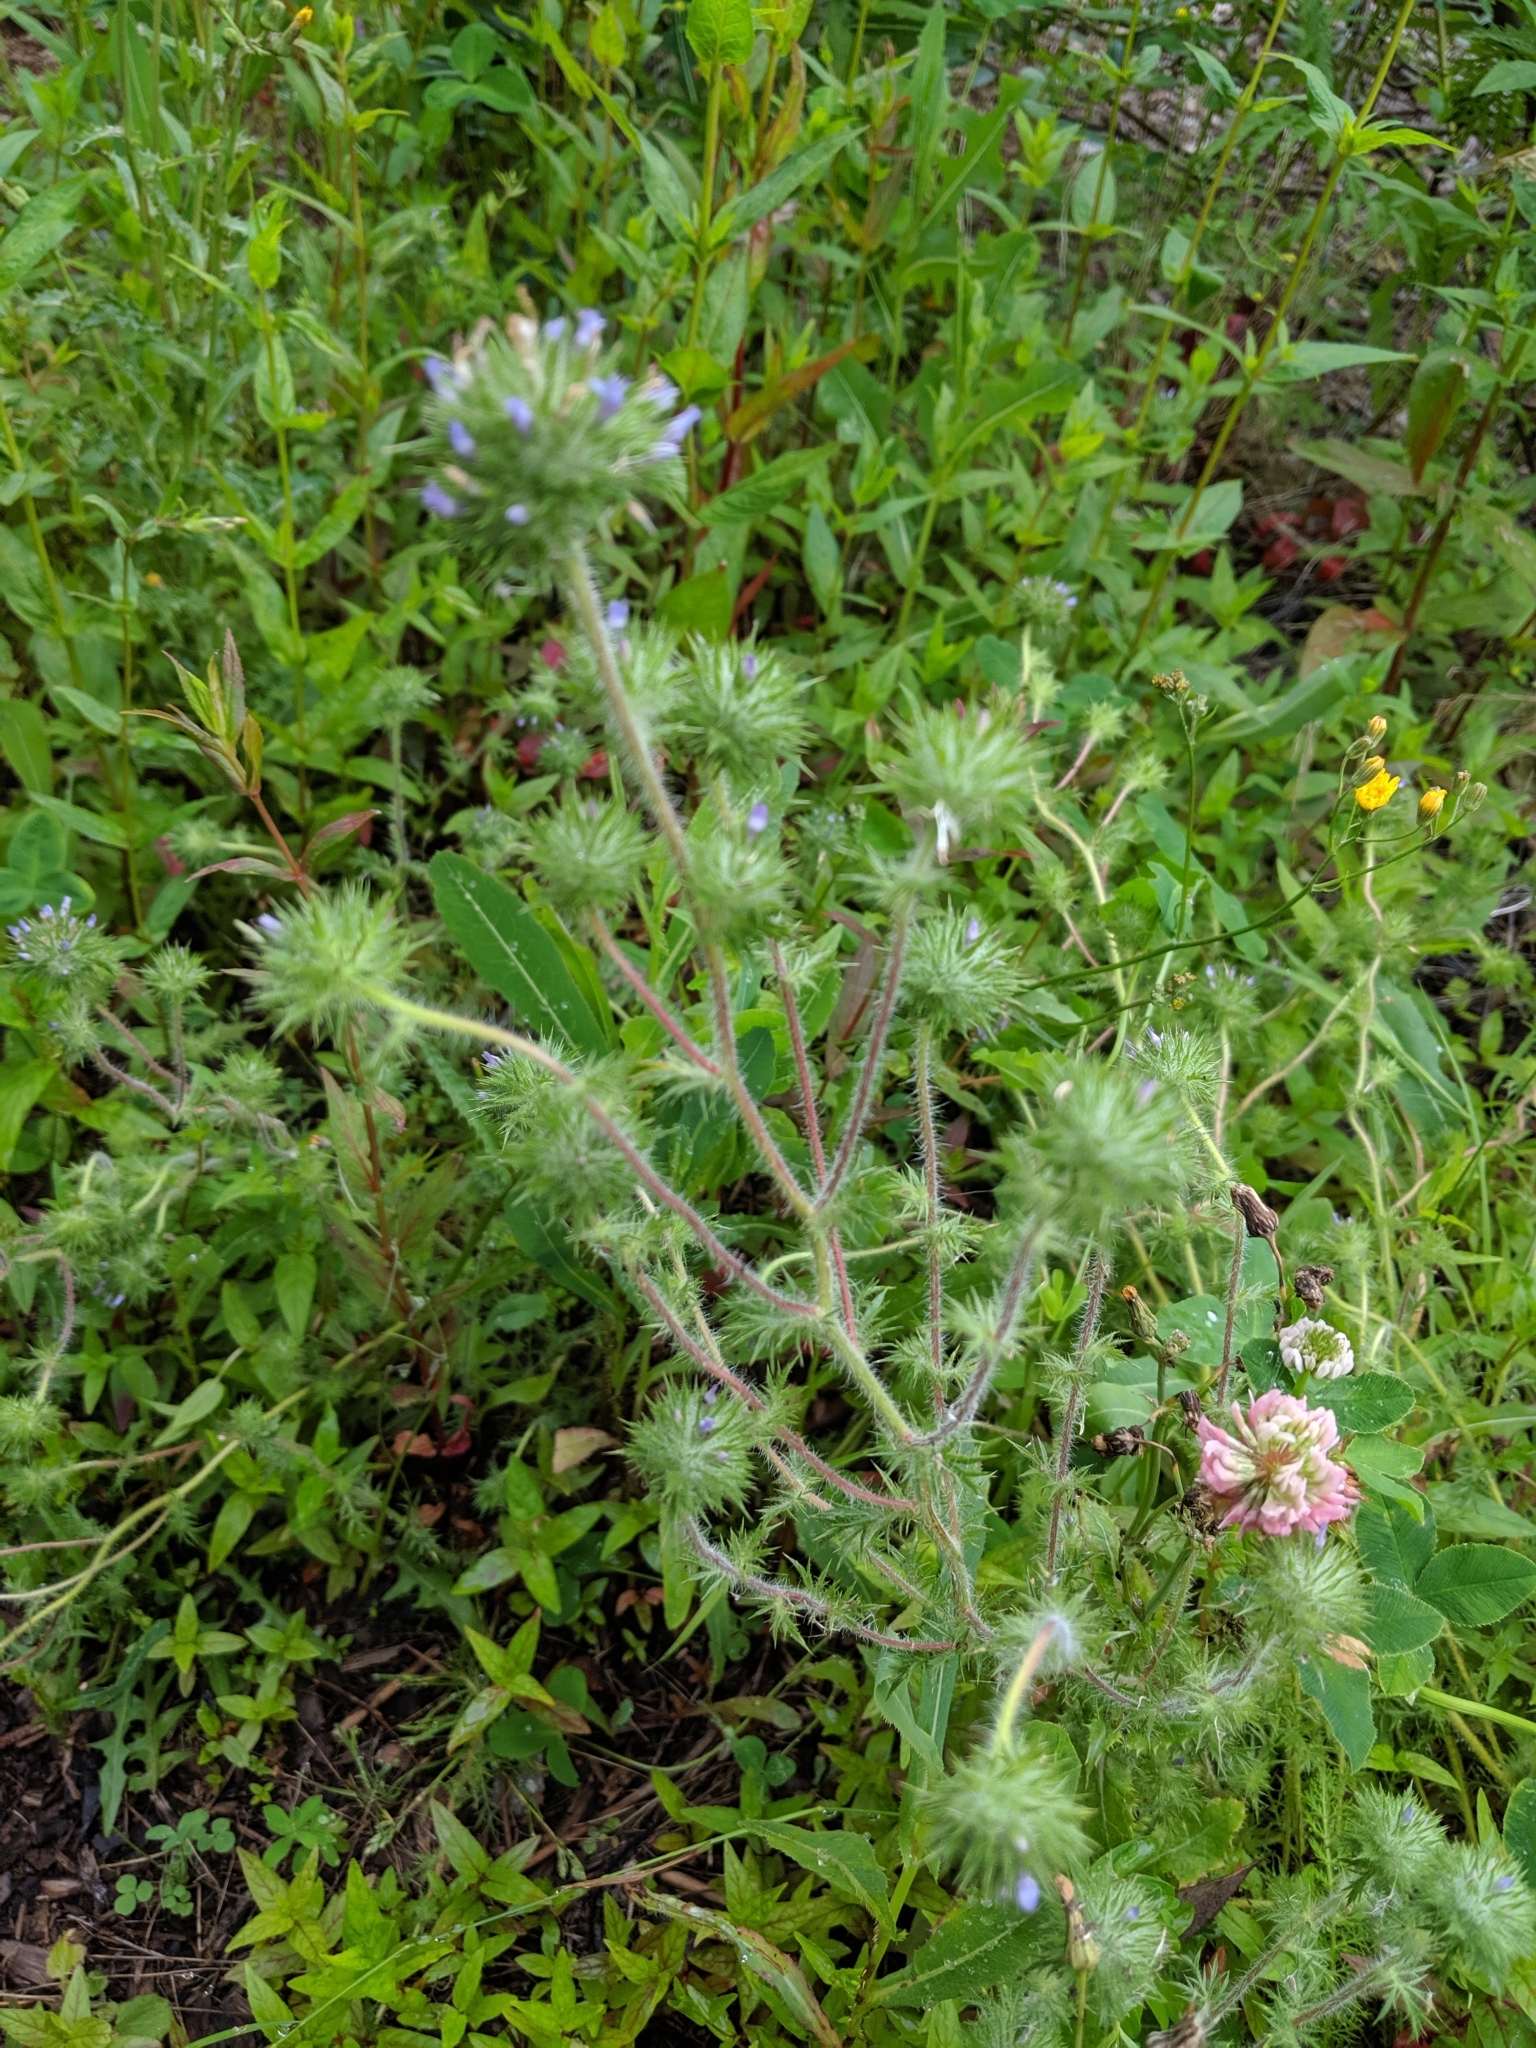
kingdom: Plantae
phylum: Tracheophyta
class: Magnoliopsida
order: Ericales
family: Polemoniaceae
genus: Navarretia
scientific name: Navarretia squarrosa
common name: Skunkweed
